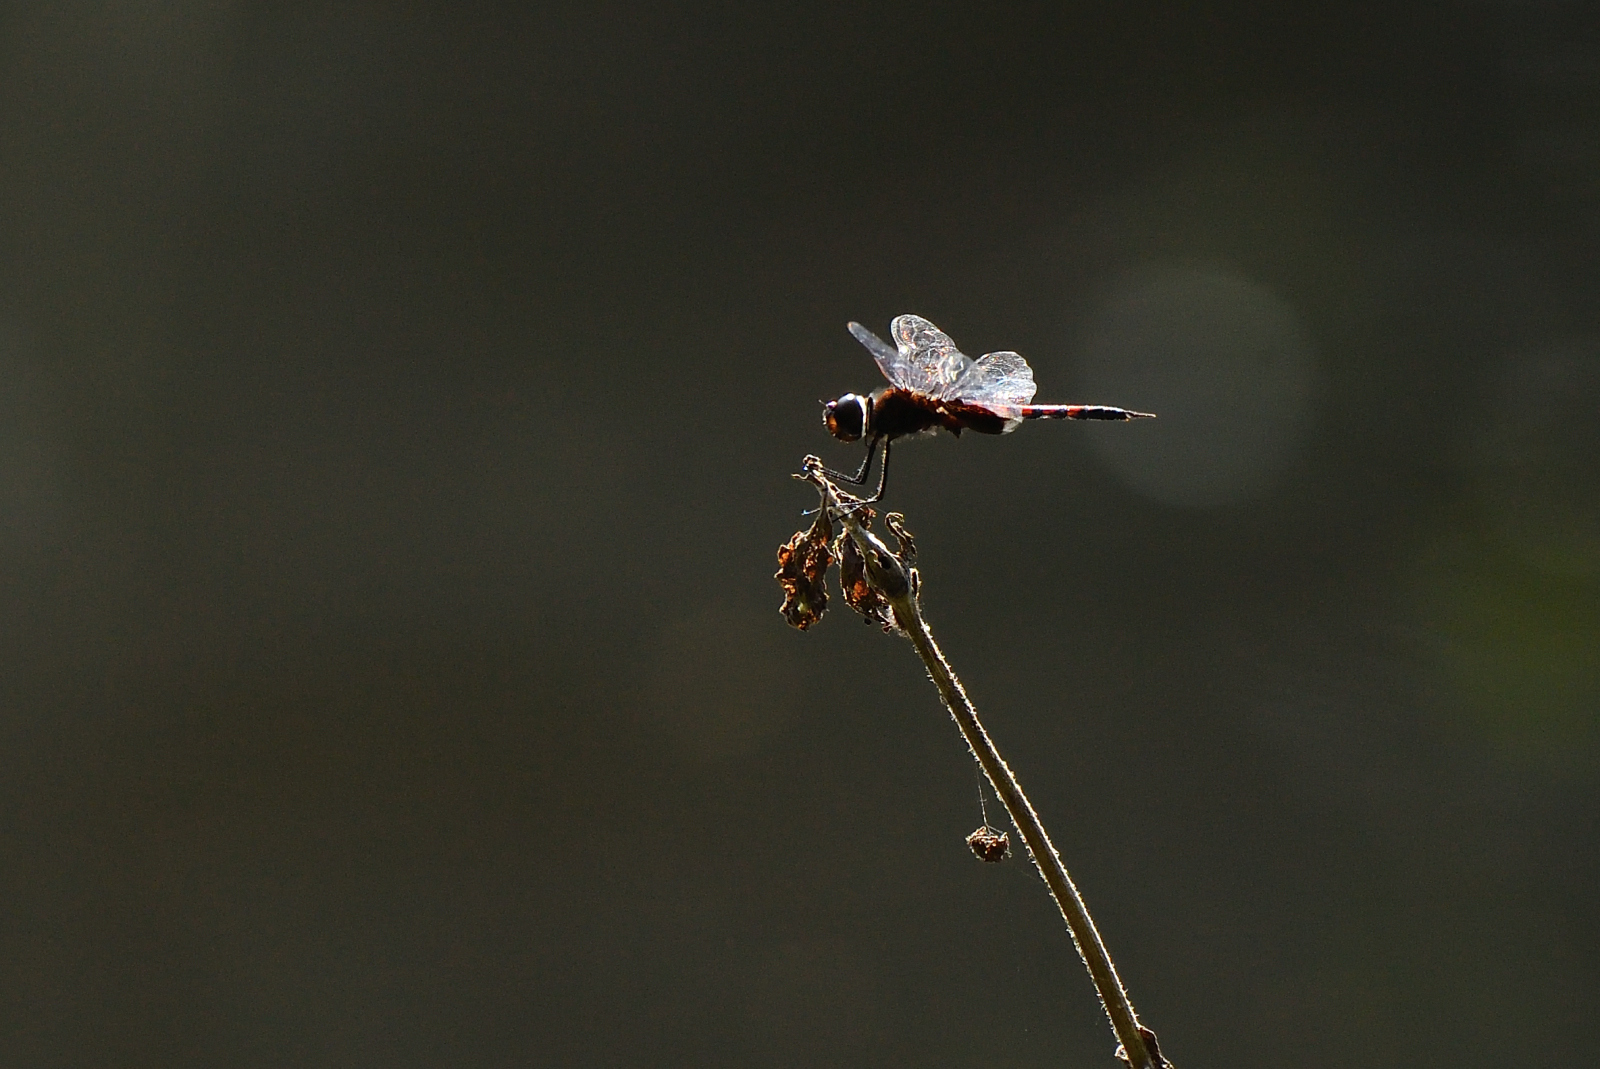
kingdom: Animalia
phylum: Arthropoda
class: Insecta
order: Odonata
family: Libellulidae
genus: Tramea
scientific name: Tramea limbata
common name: Ferruginous glider
